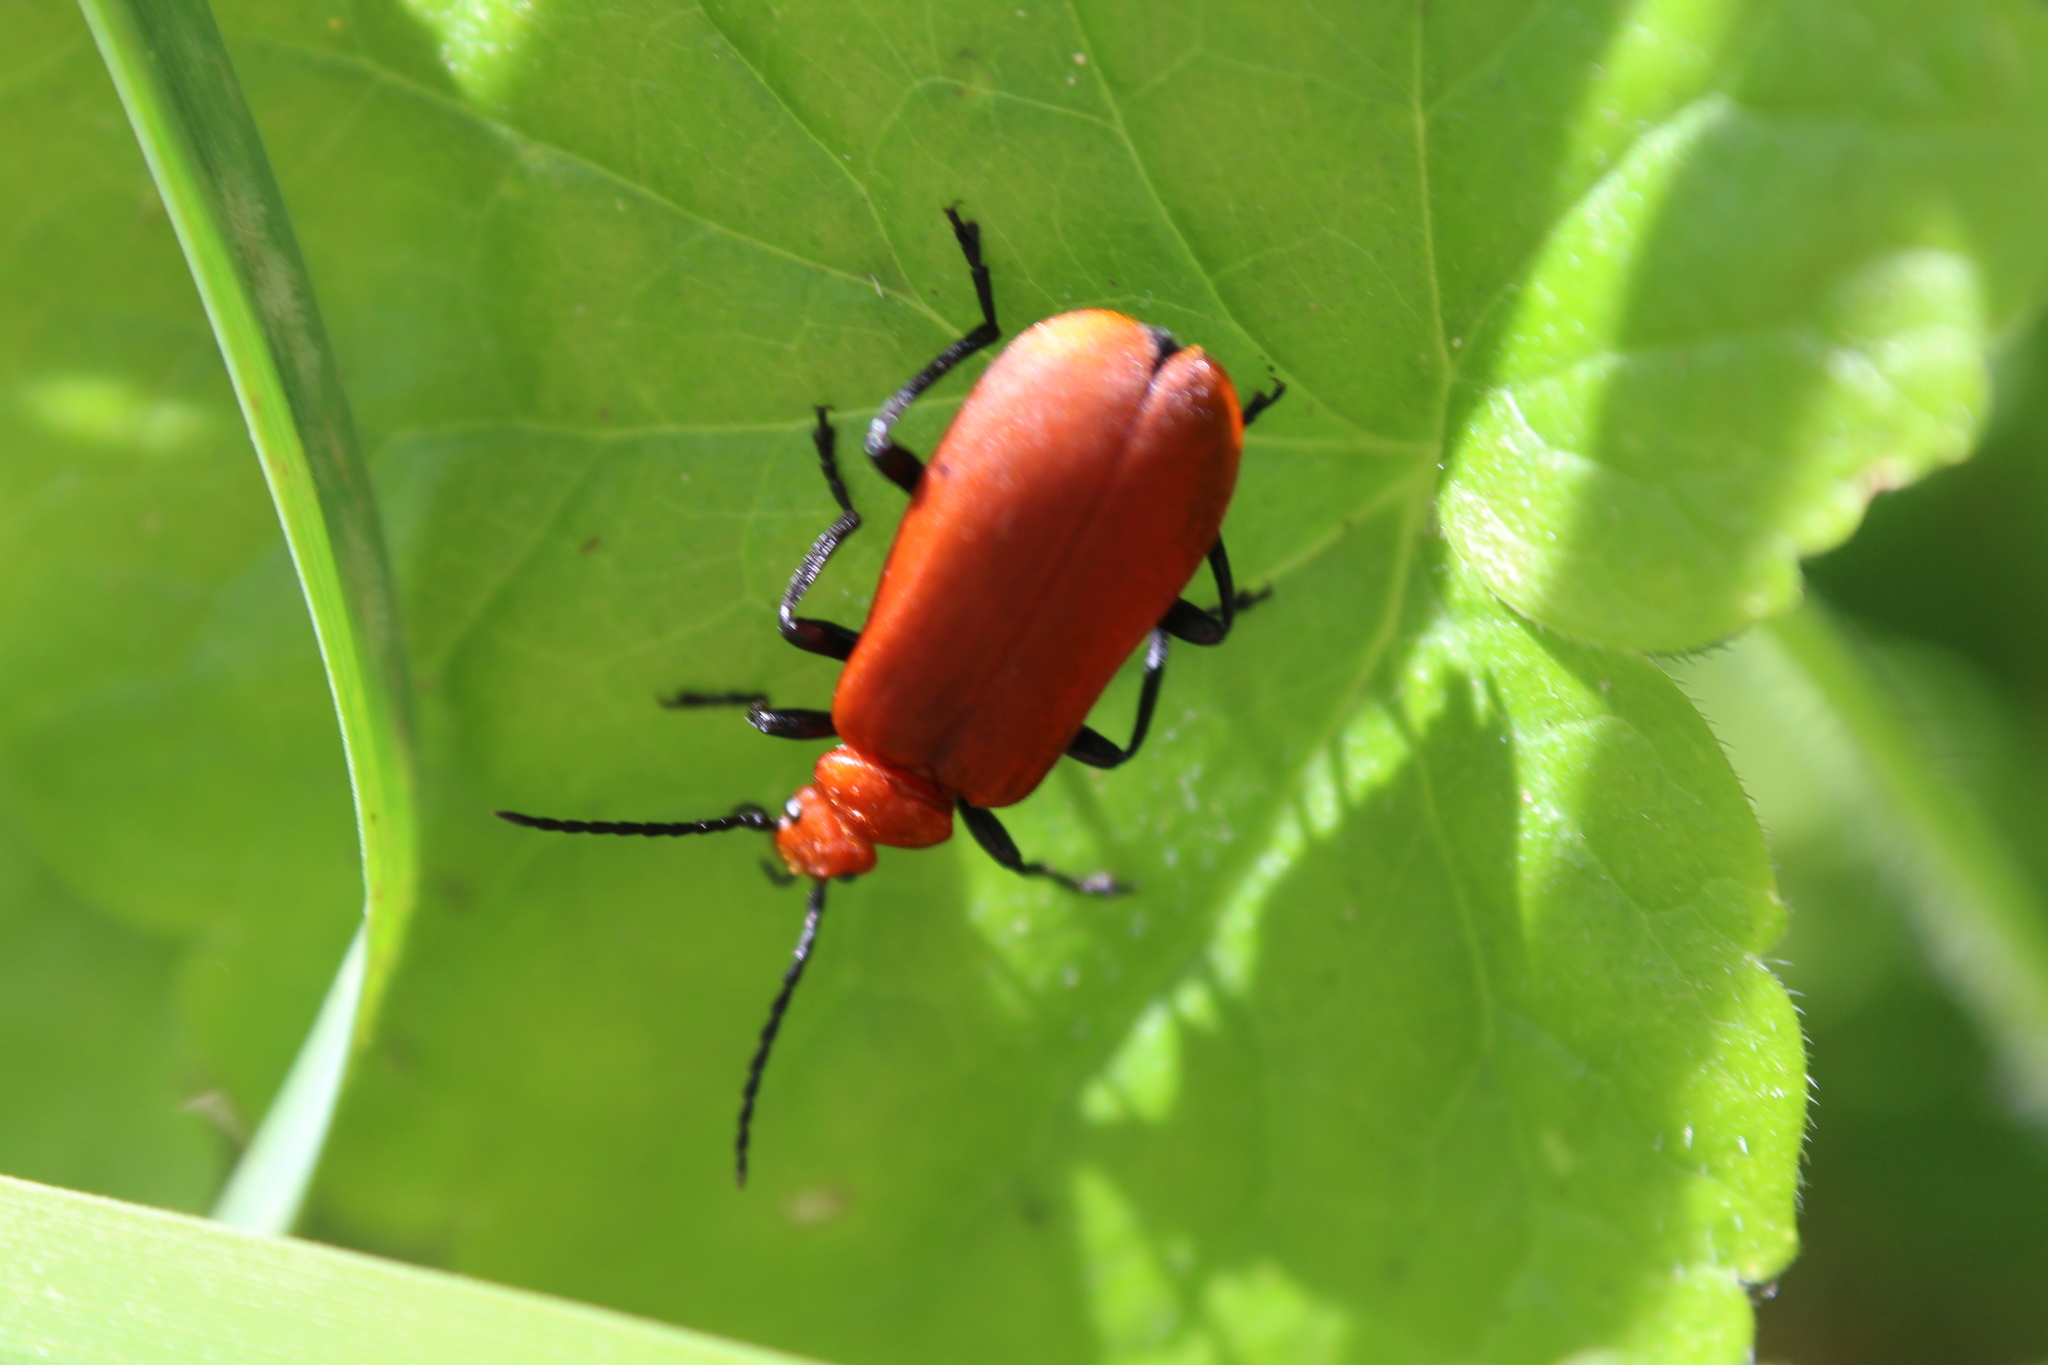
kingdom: Animalia
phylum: Arthropoda
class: Insecta
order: Coleoptera
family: Pyrochroidae
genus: Pyrochroa
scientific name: Pyrochroa serraticornis
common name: Red-headed cardinal beetle
